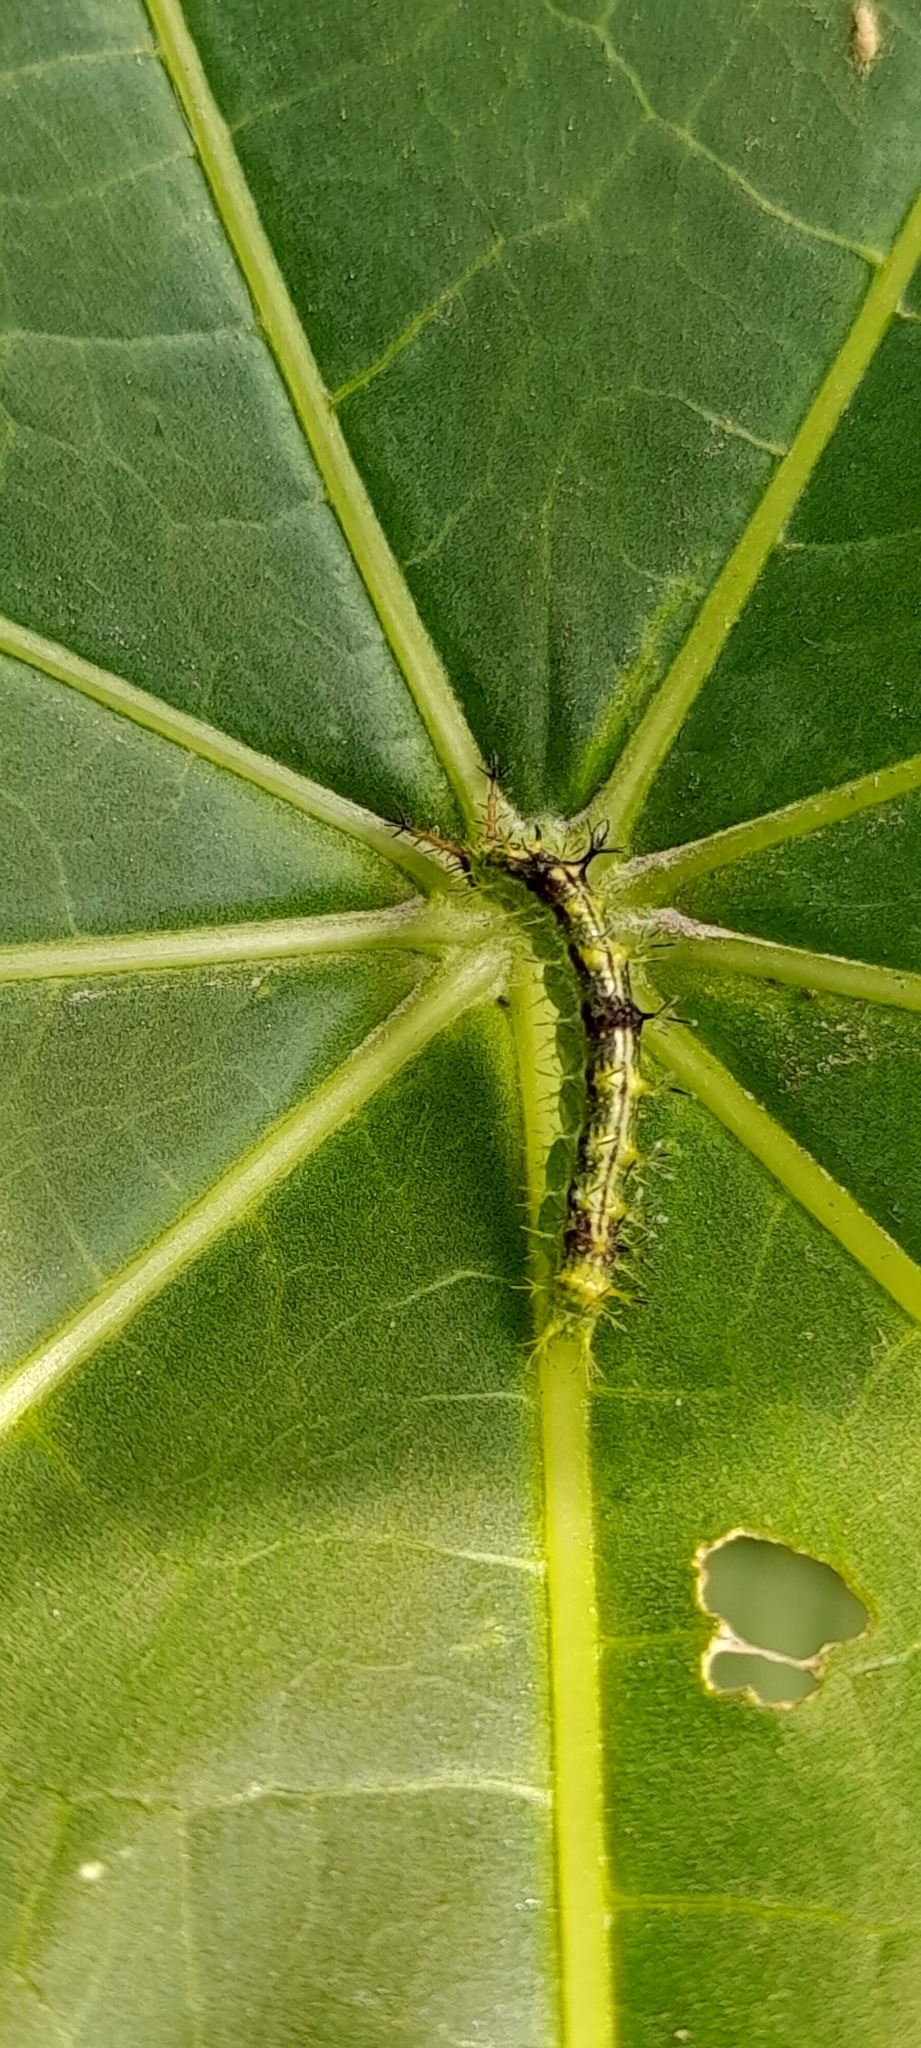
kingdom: Animalia
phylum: Arthropoda
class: Insecta
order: Lepidoptera
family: Nymphalidae
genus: Ariadne
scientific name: Ariadne merione
